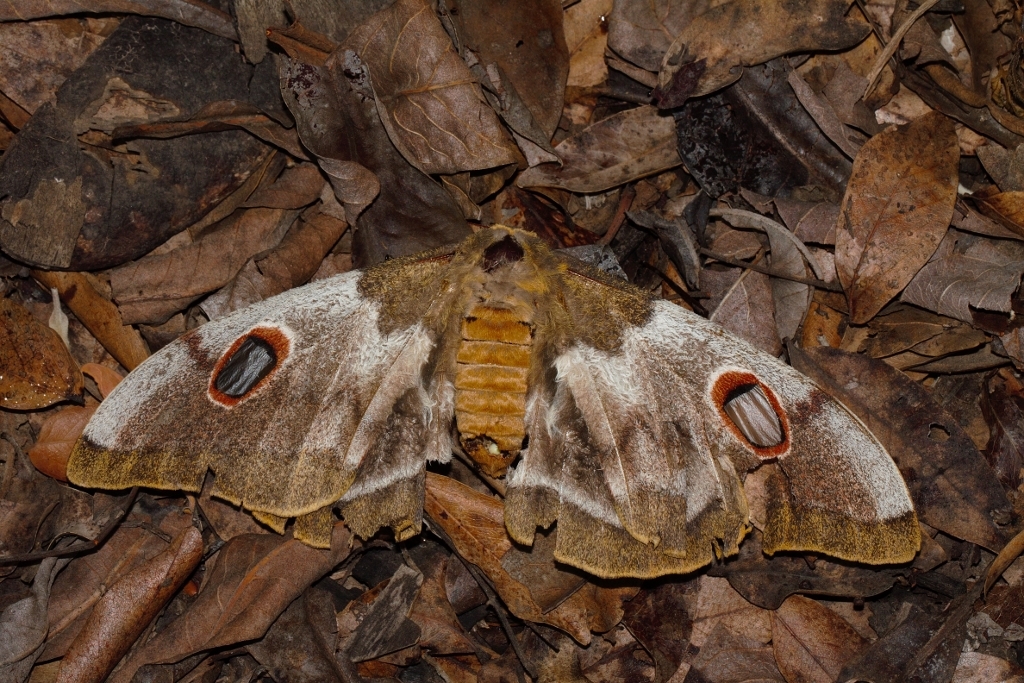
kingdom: Animalia
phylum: Arthropoda
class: Insecta
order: Lepidoptera
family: Saturniidae
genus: Gonimbrasia
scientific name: Gonimbrasia
